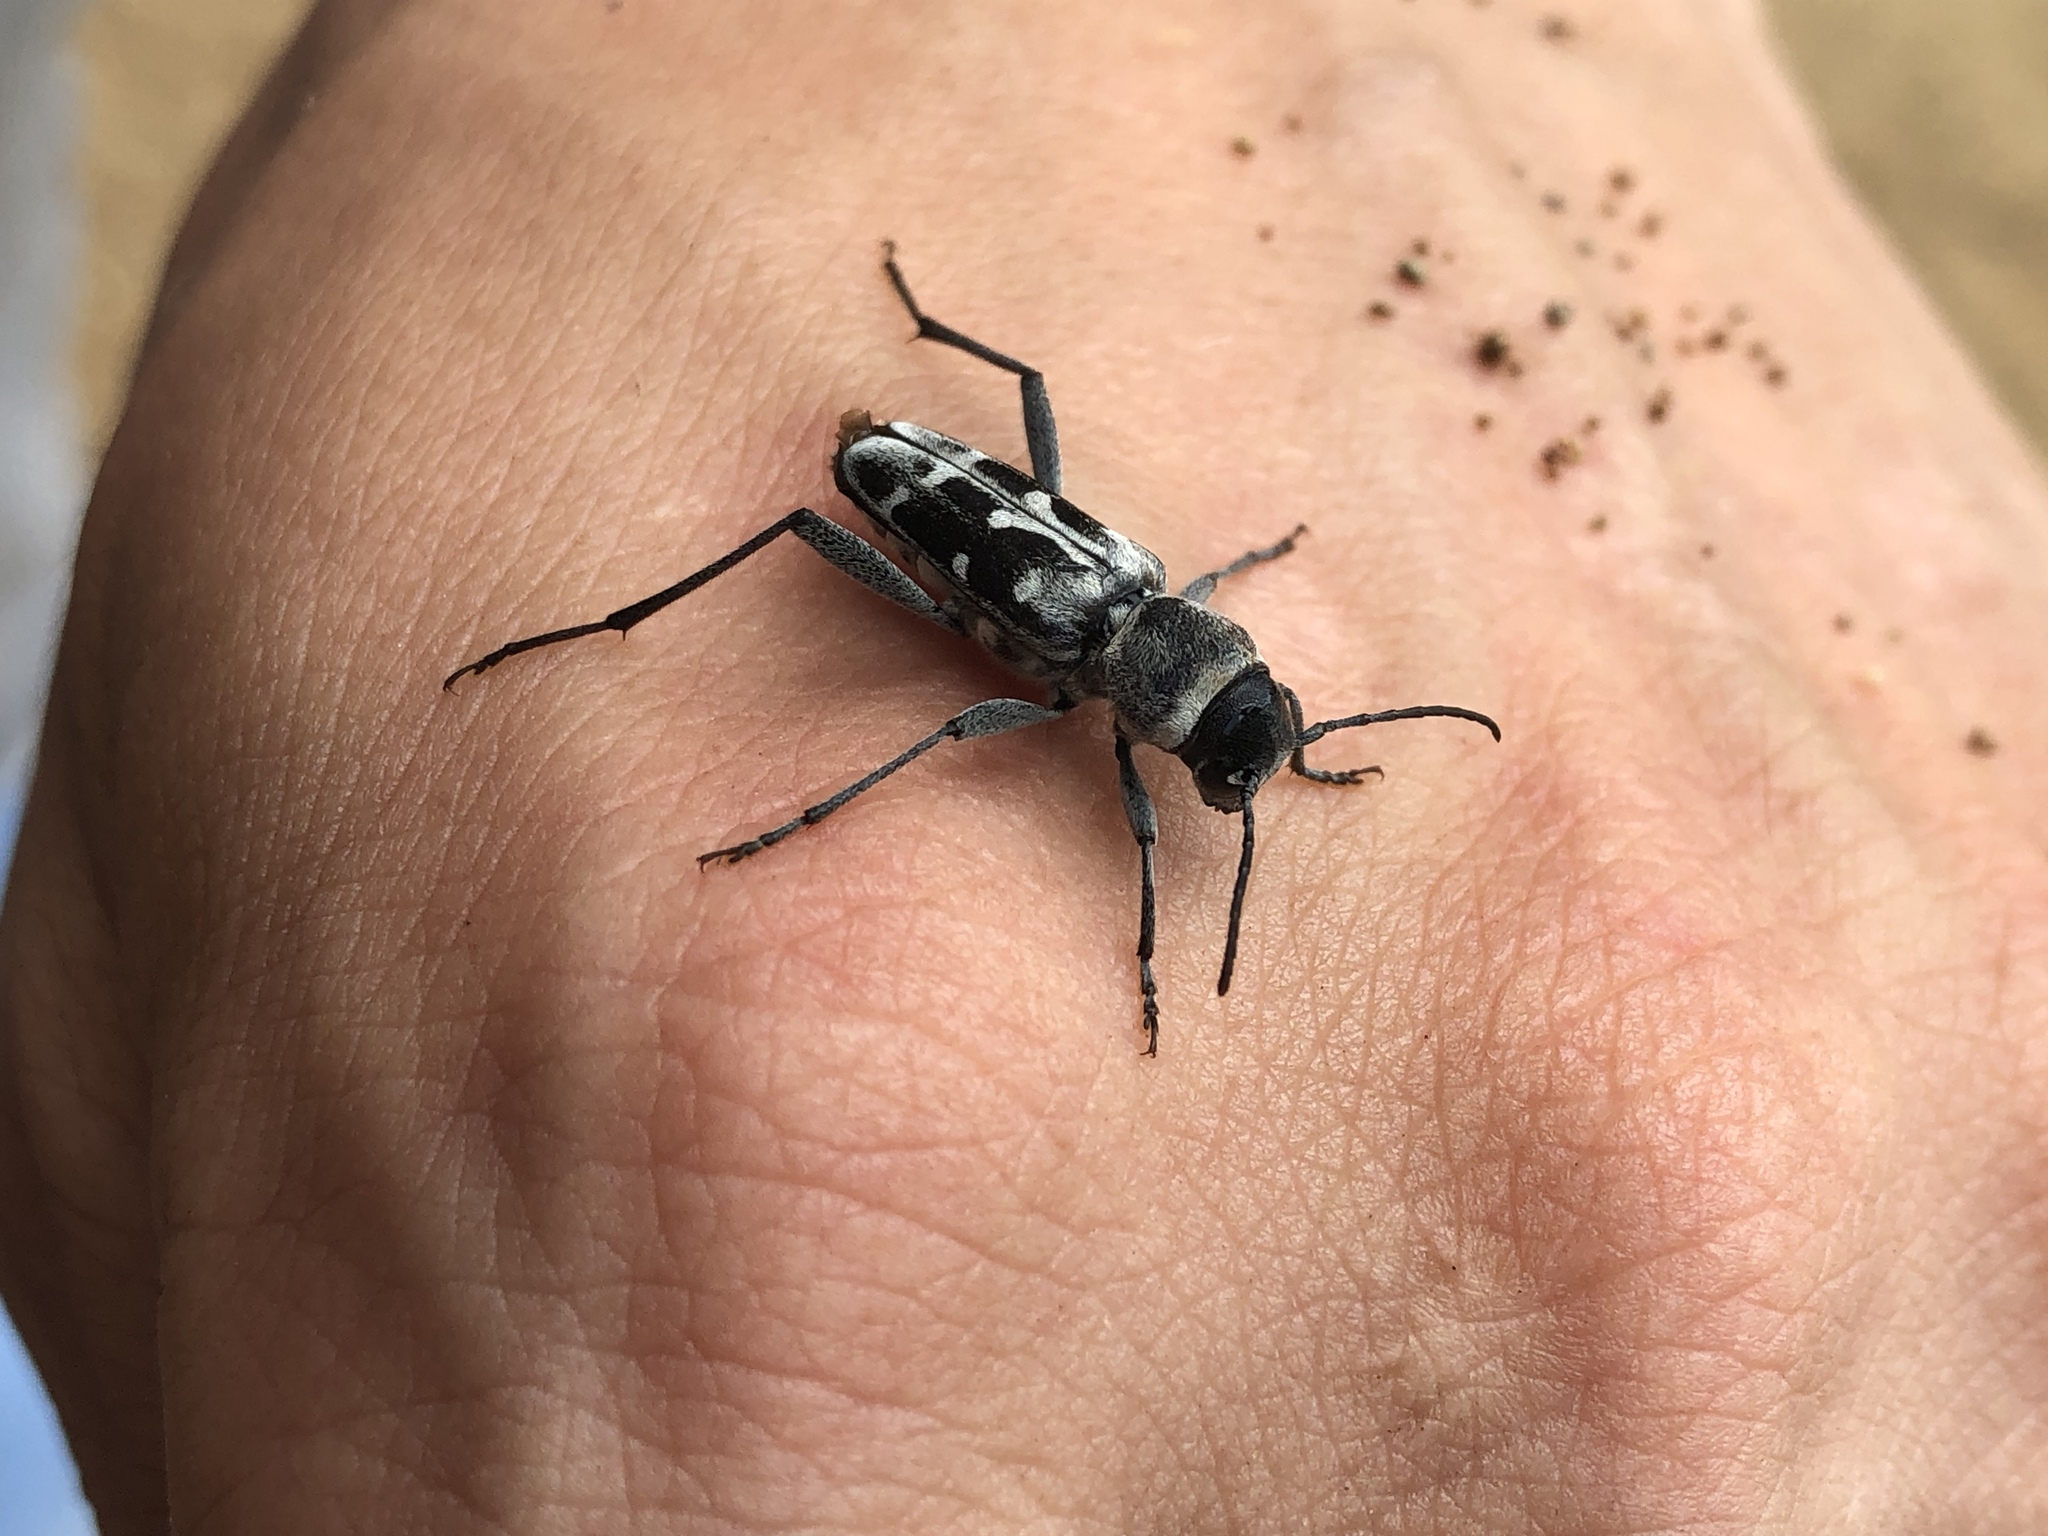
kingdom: Animalia
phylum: Arthropoda
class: Insecta
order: Coleoptera
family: Cerambycidae
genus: Xylotrechus
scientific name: Xylotrechus albonotatus
